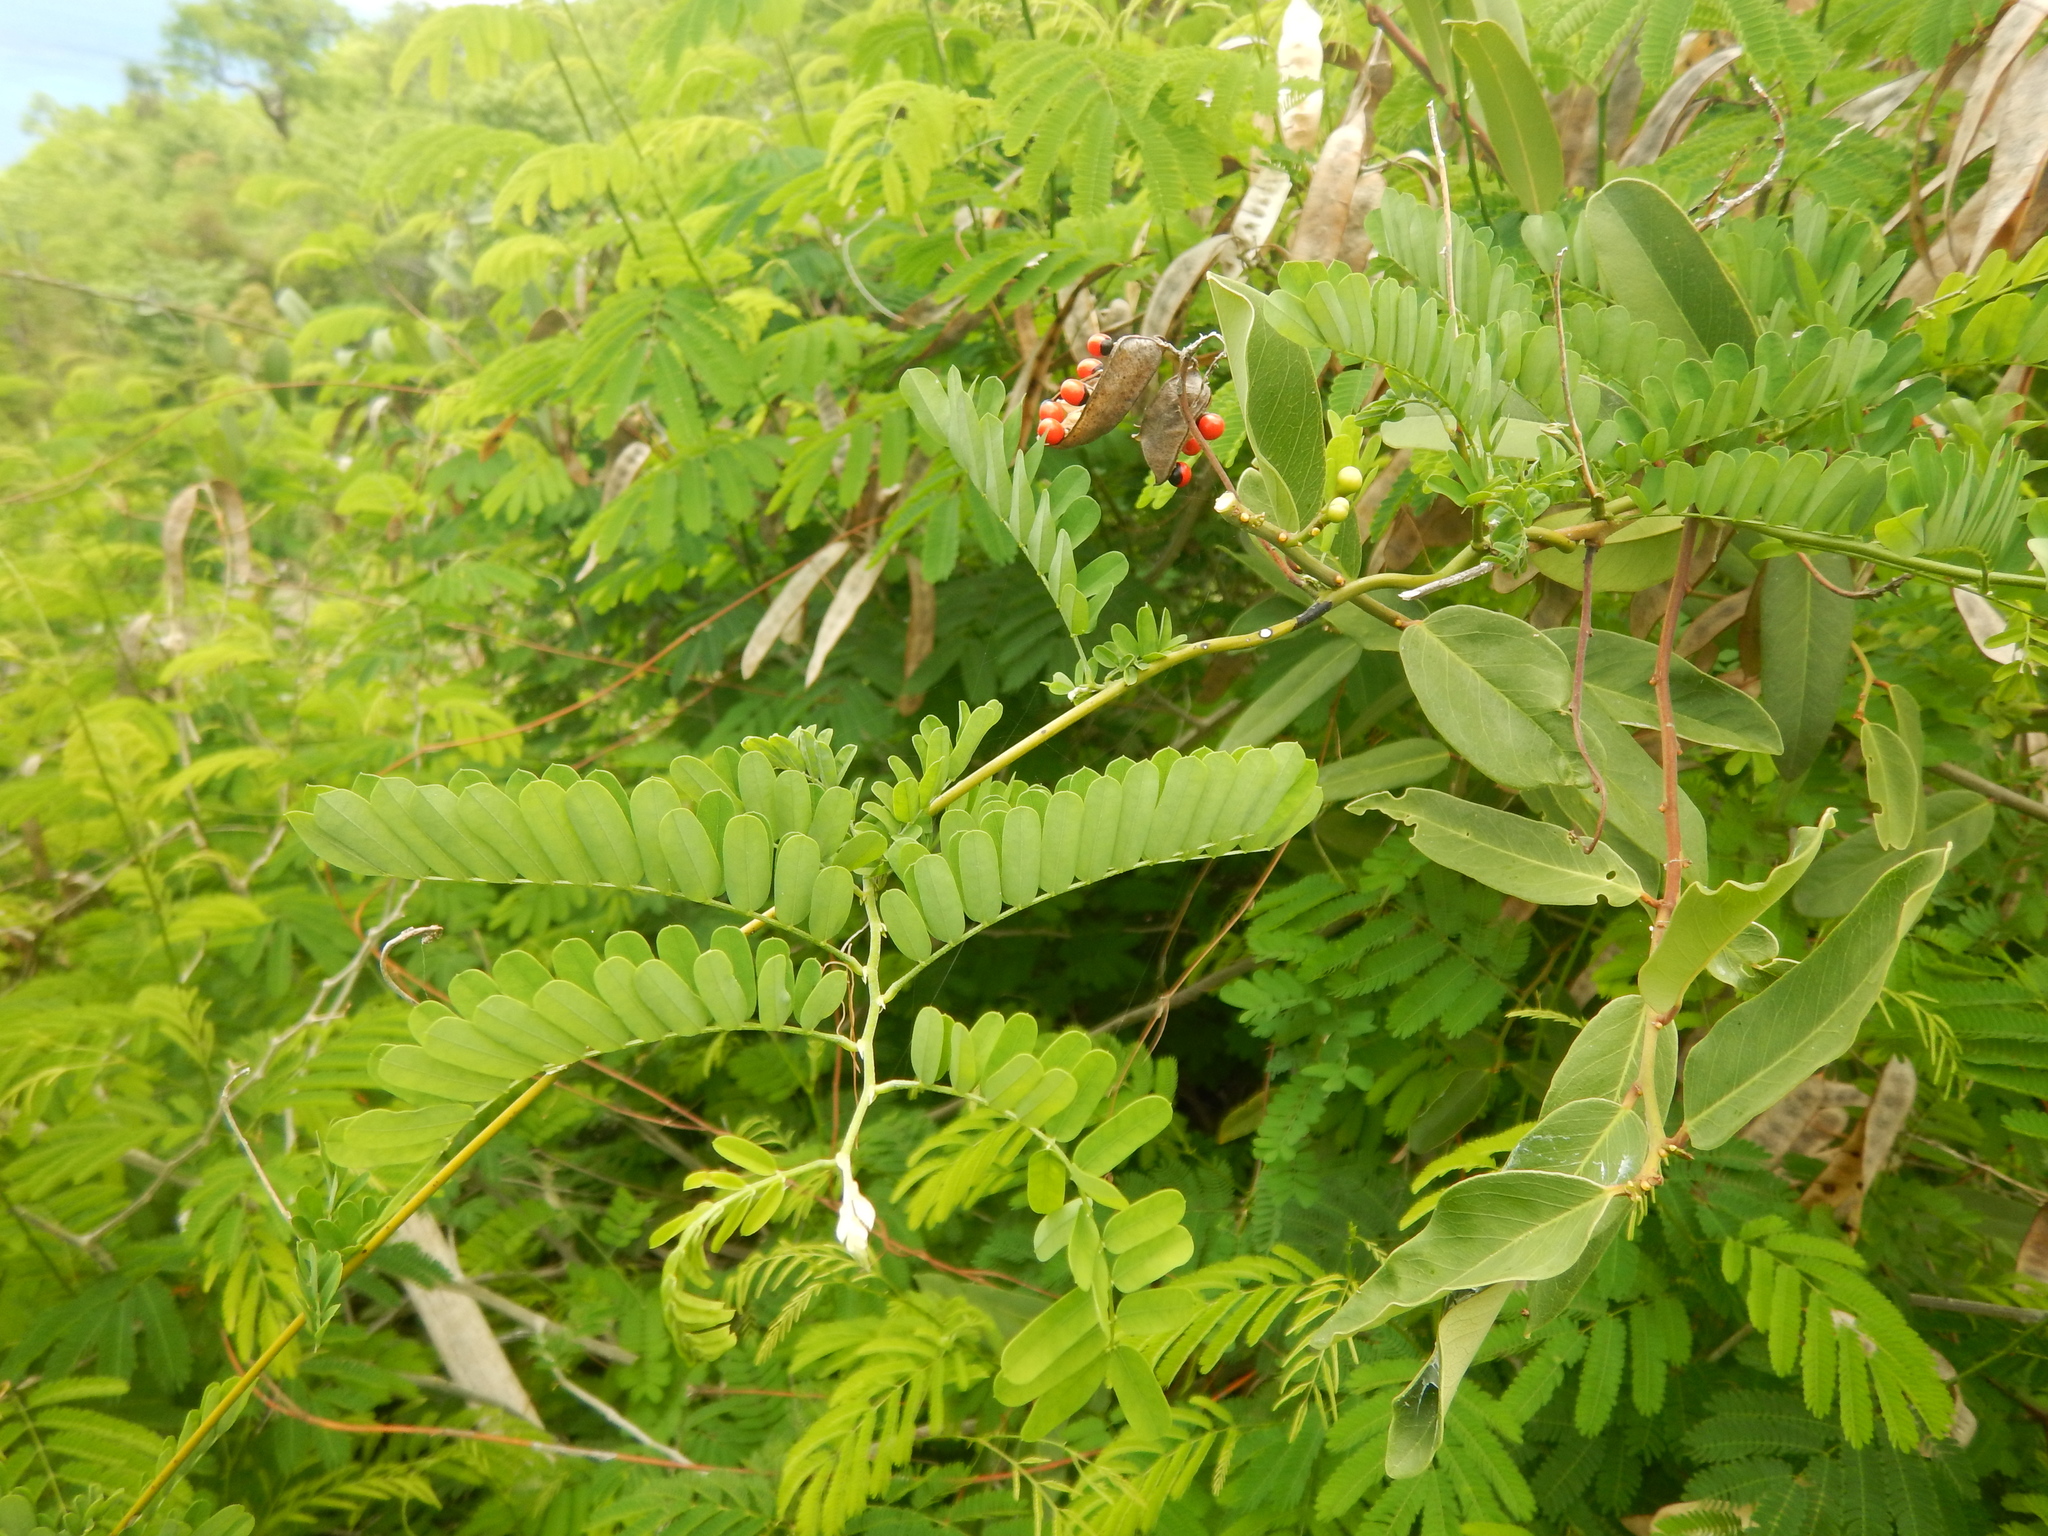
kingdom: Plantae
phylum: Tracheophyta
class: Magnoliopsida
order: Fabales
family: Fabaceae
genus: Abrus
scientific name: Abrus precatorius
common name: Rosarypea
